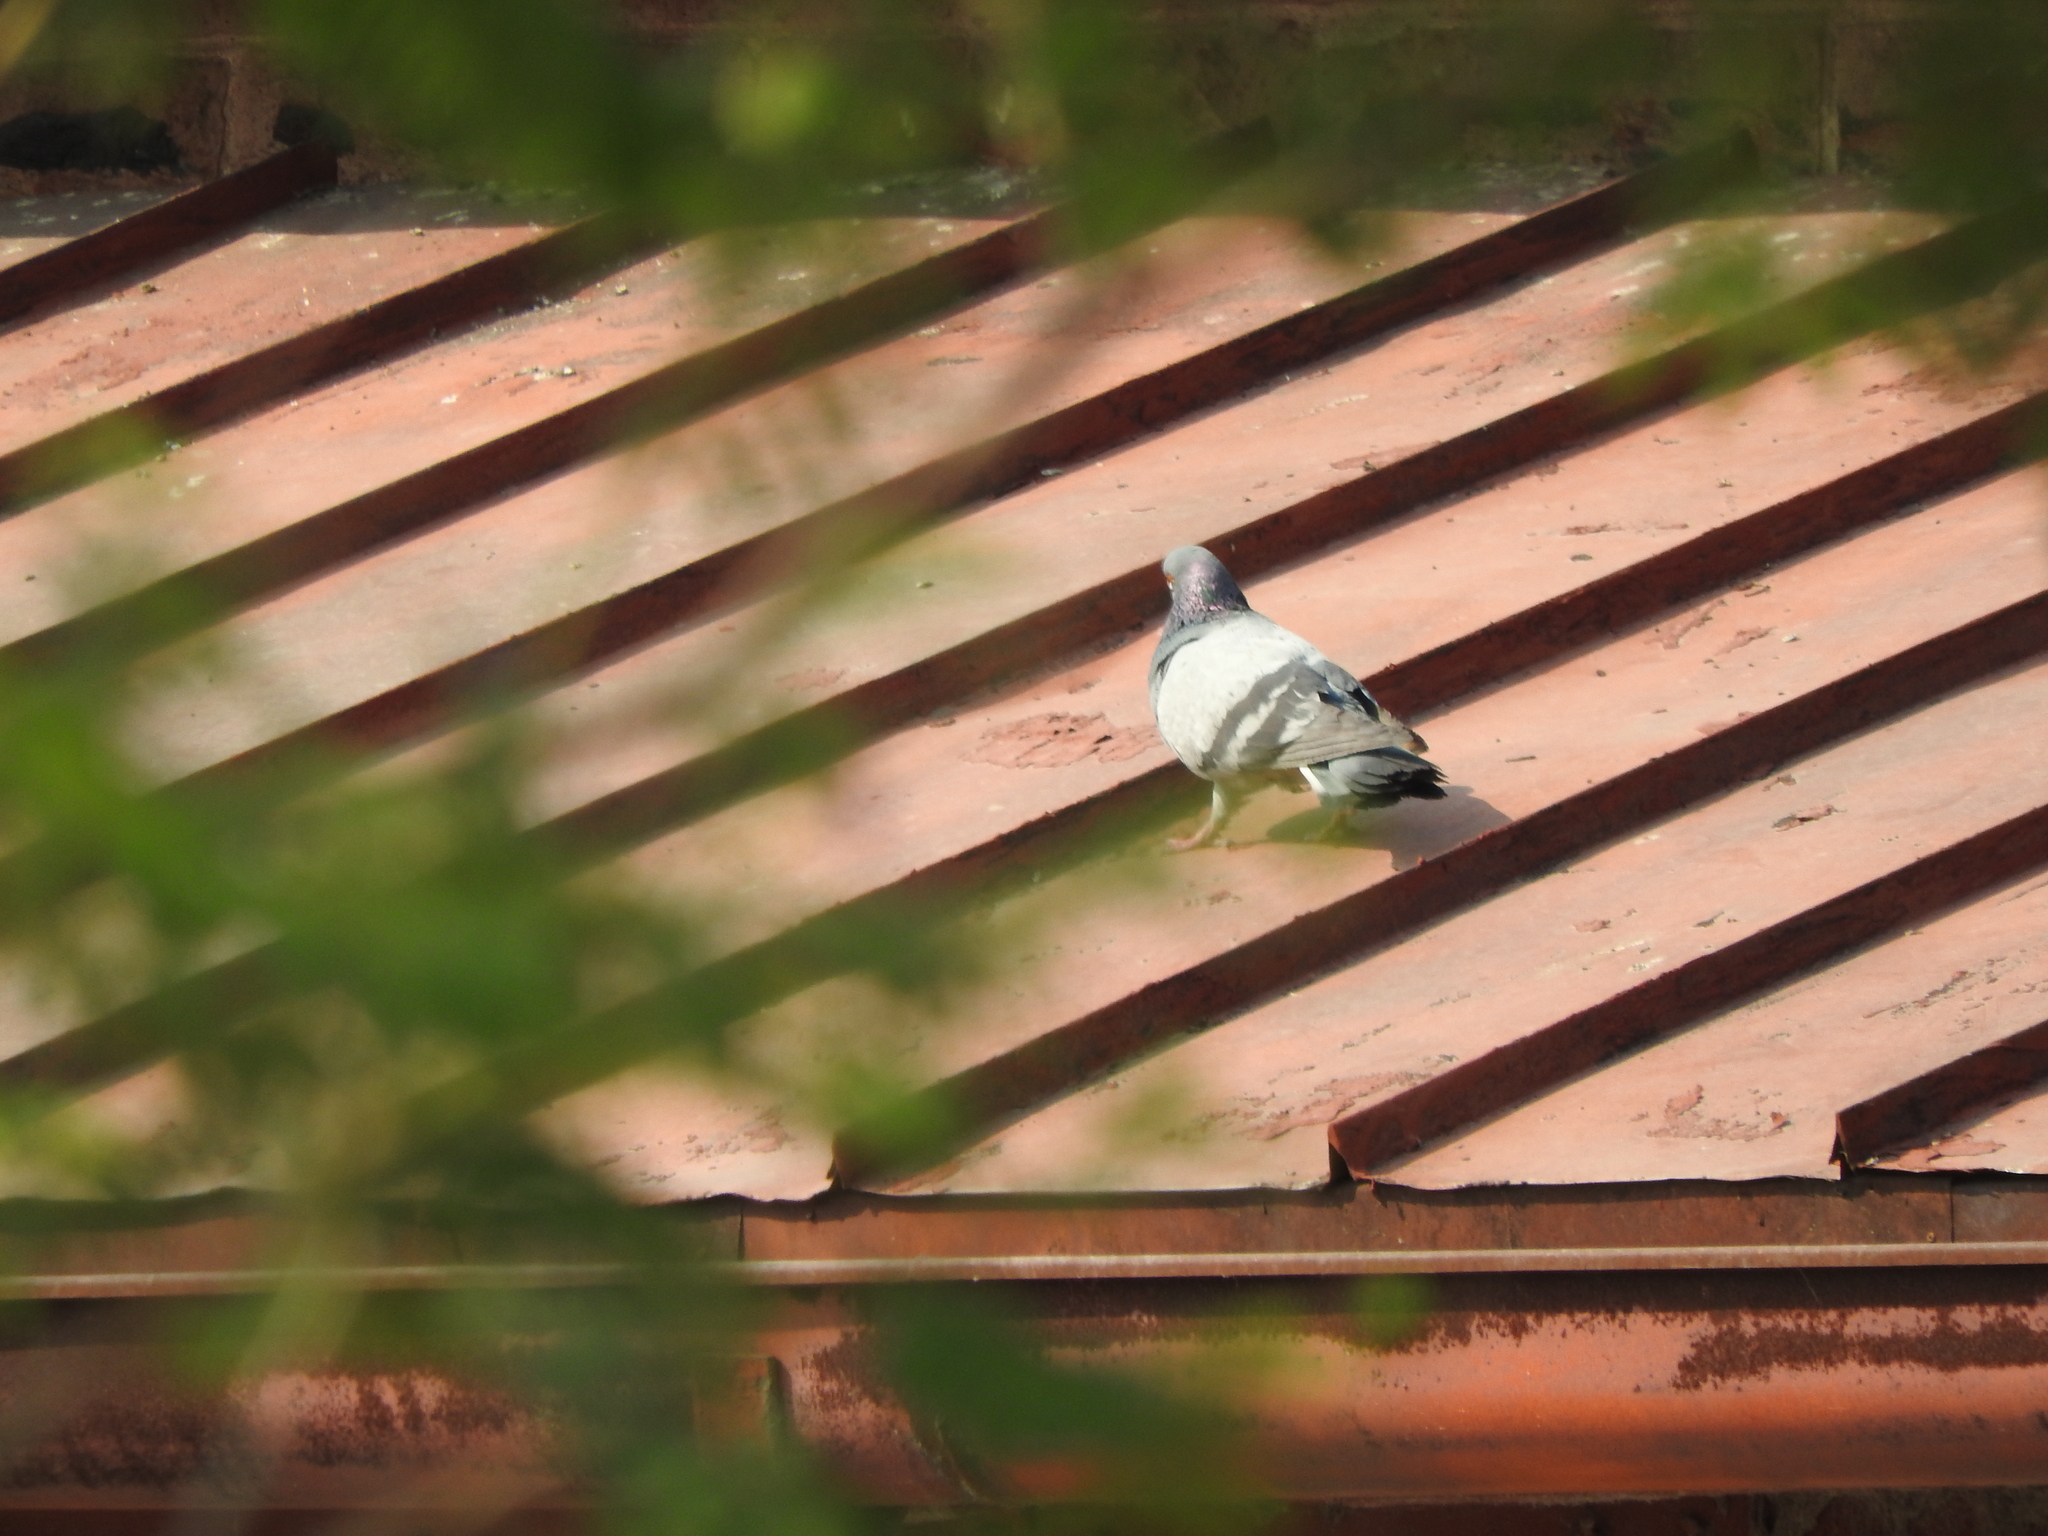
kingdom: Animalia
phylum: Chordata
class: Aves
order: Columbiformes
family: Columbidae
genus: Columba
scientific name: Columba livia
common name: Rock pigeon
